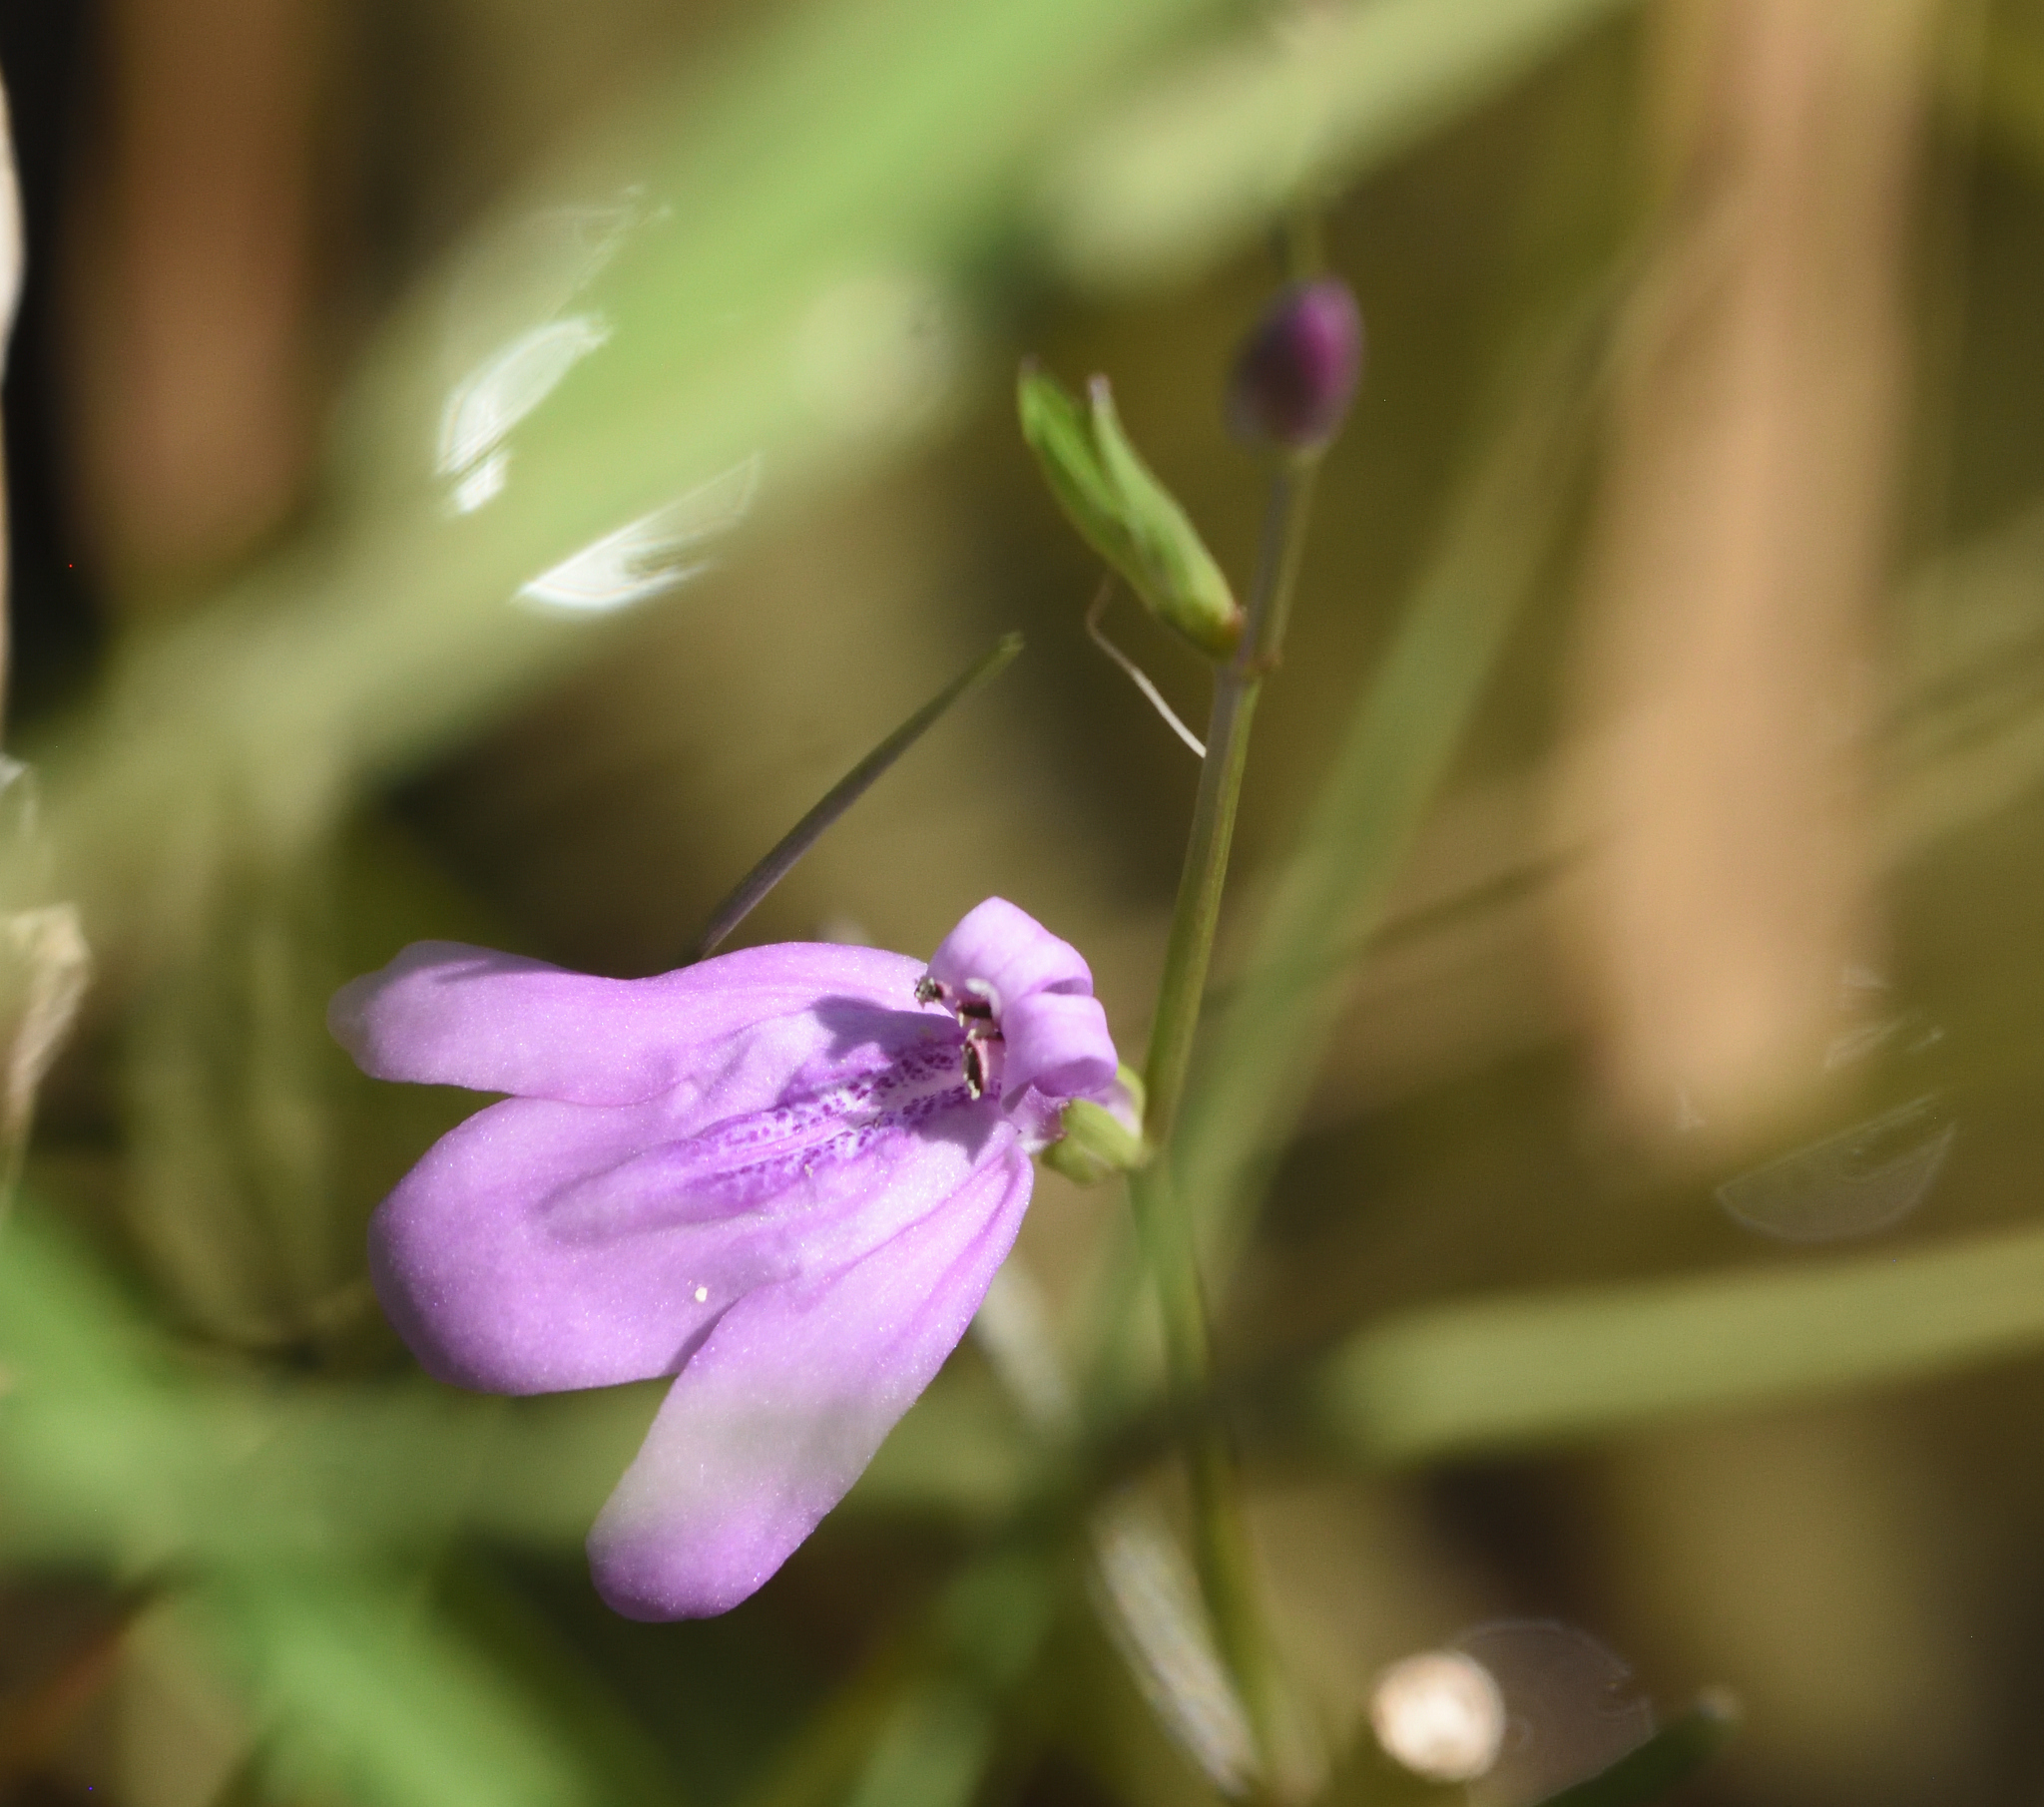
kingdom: Plantae
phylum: Tracheophyta
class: Magnoliopsida
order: Lamiales
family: Acanthaceae
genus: Dianthera
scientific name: Dianthera angusta
